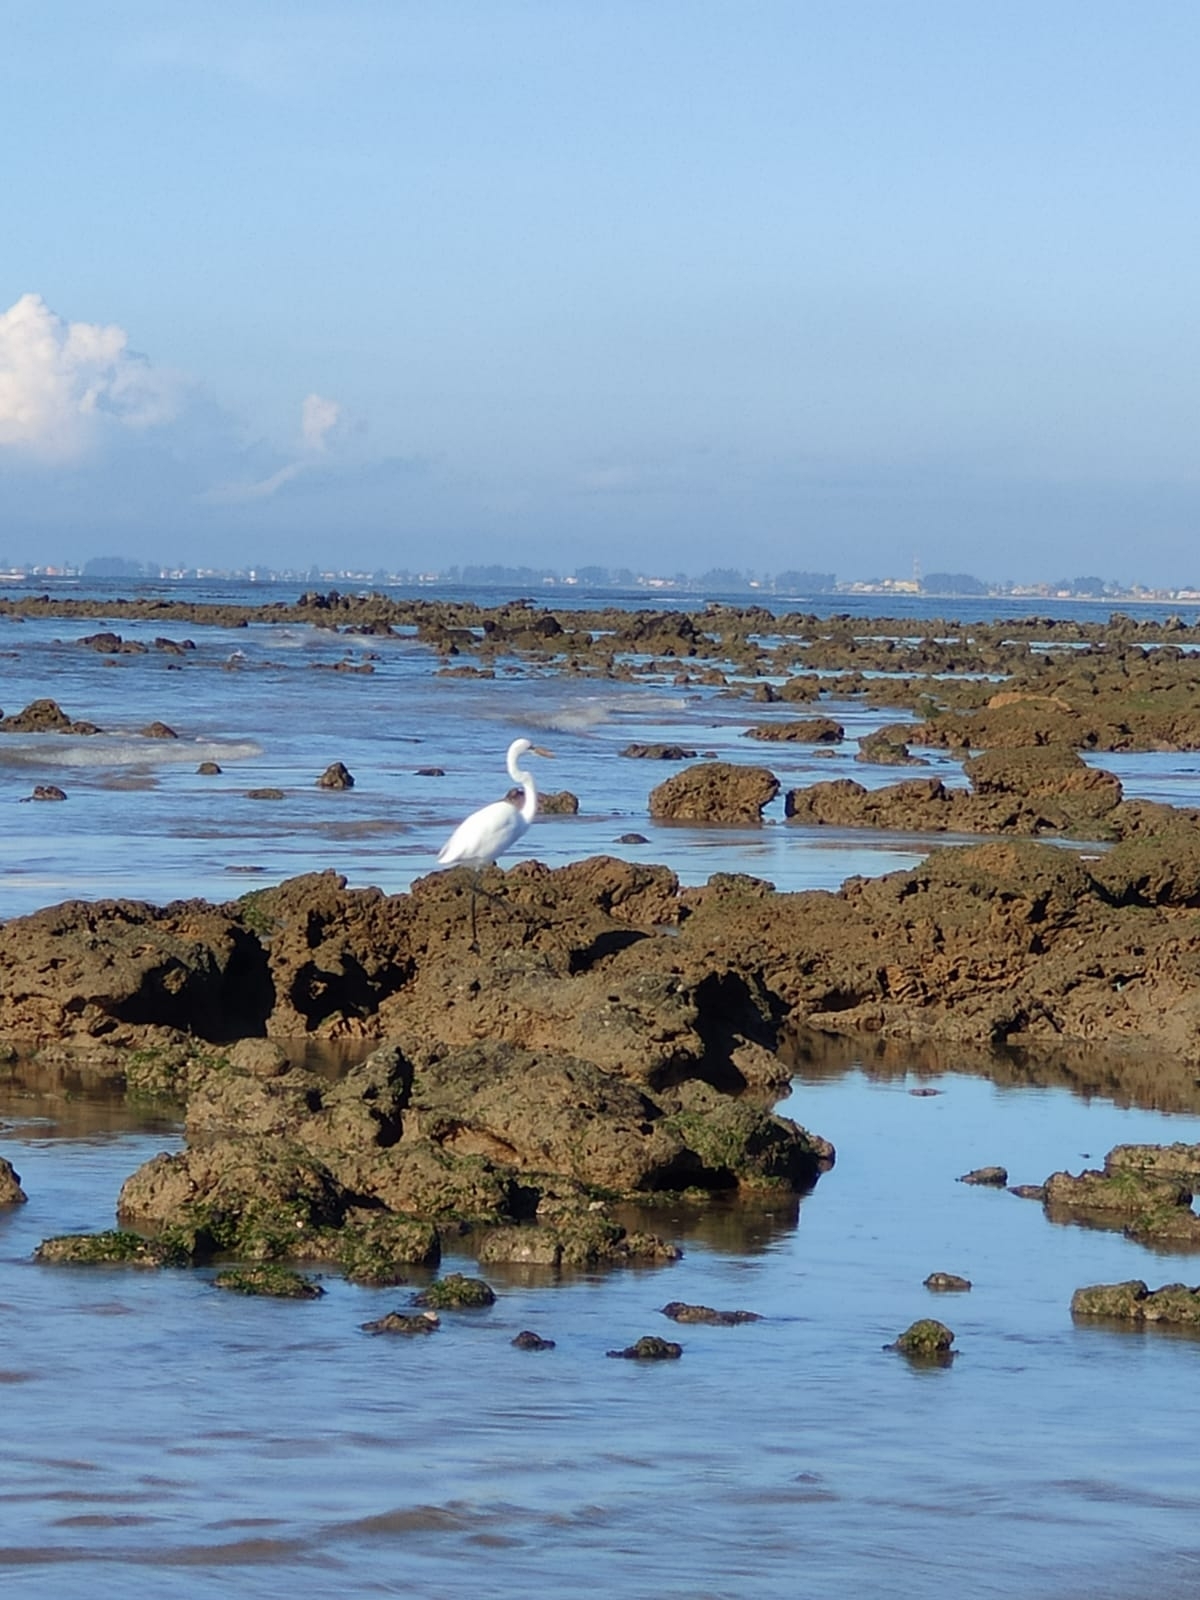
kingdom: Animalia
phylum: Chordata
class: Aves
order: Pelecaniformes
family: Ardeidae
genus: Ardea
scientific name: Ardea alba
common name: Great egret
